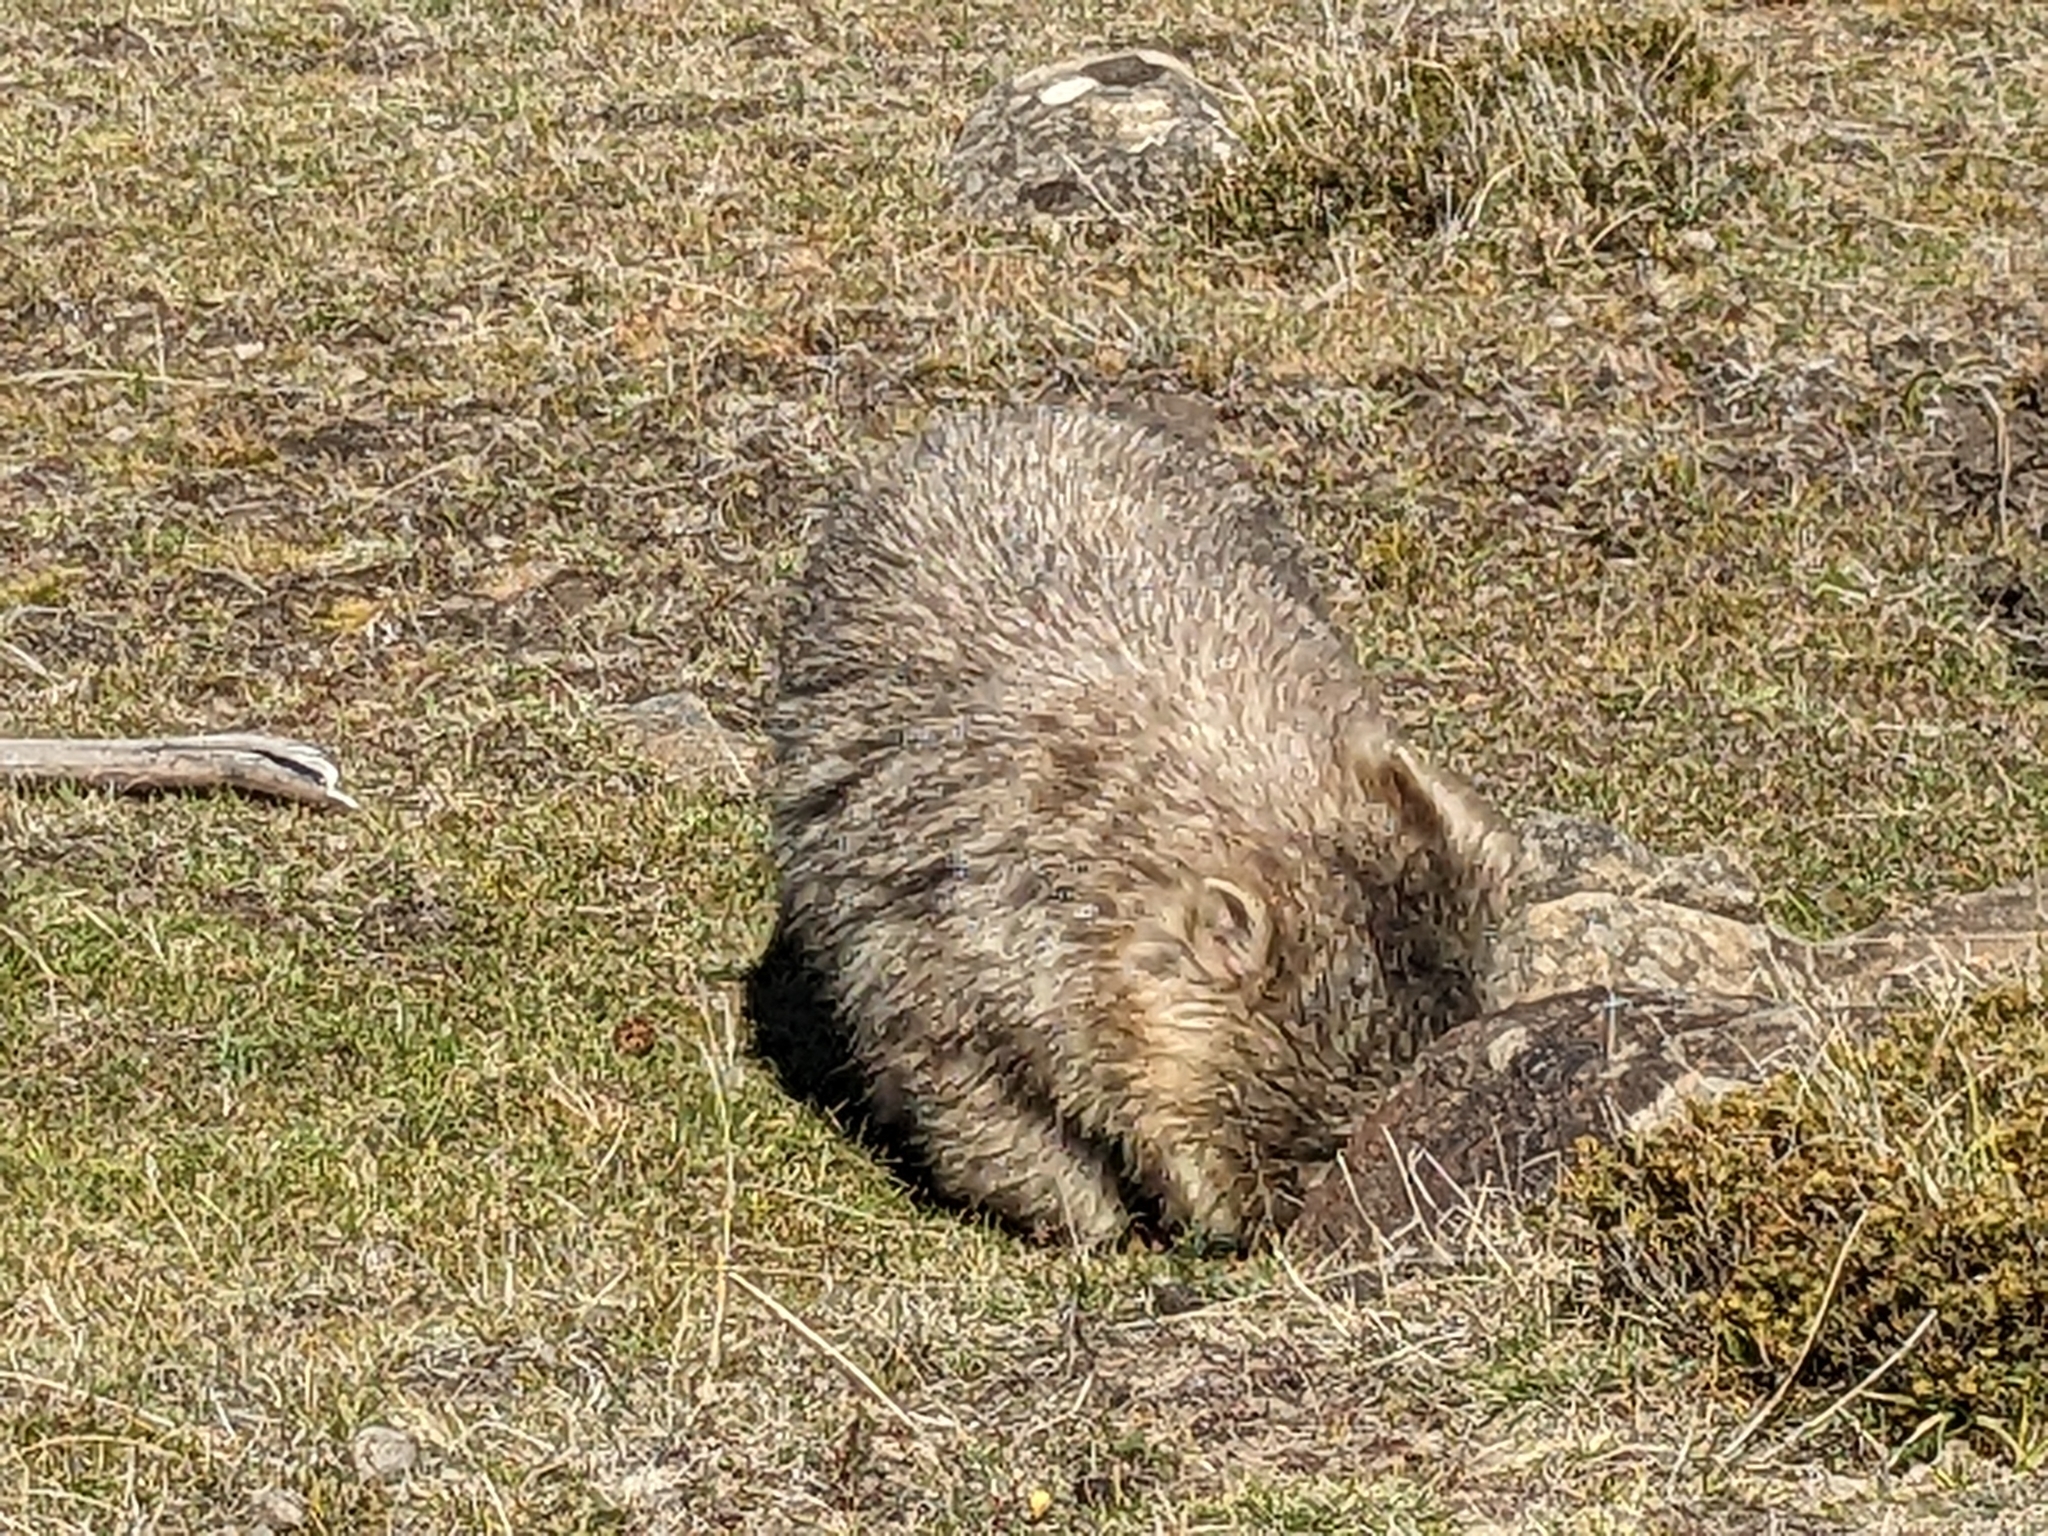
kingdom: Animalia
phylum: Chordata
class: Mammalia
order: Diprotodontia
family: Vombatidae
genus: Vombatus
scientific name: Vombatus ursinus
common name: Common wombat
